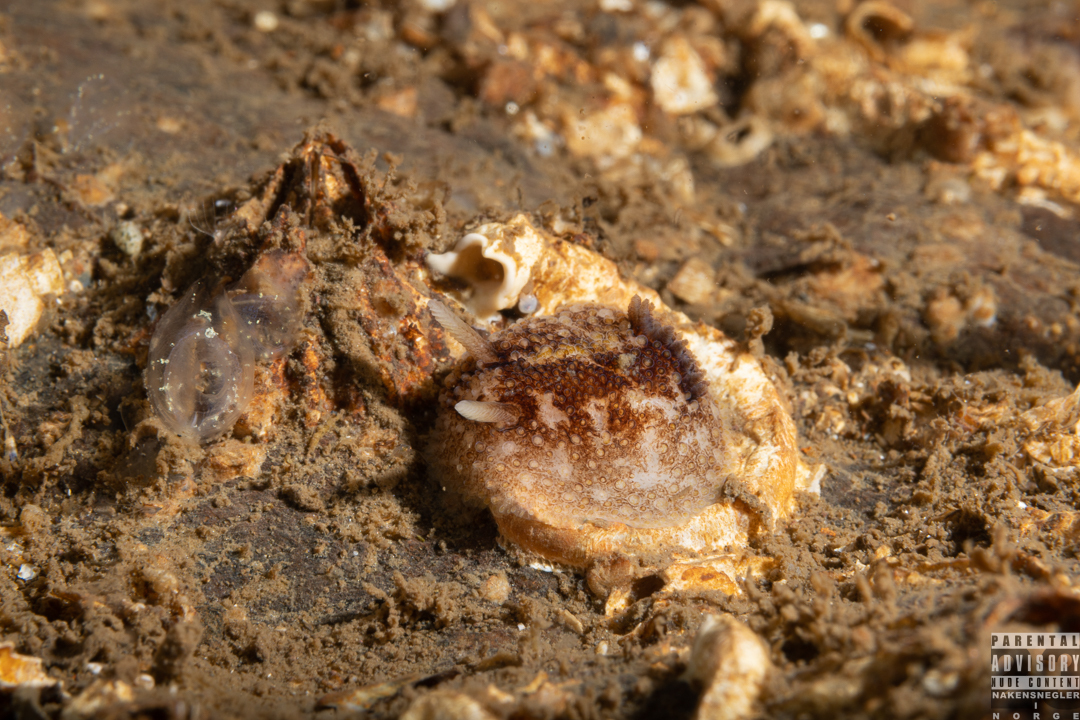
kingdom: Animalia
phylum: Mollusca
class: Gastropoda
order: Nudibranchia
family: Onchidorididae
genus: Onchidoris
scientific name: Onchidoris bilamellata
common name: Barnacle-eating onchidoris
